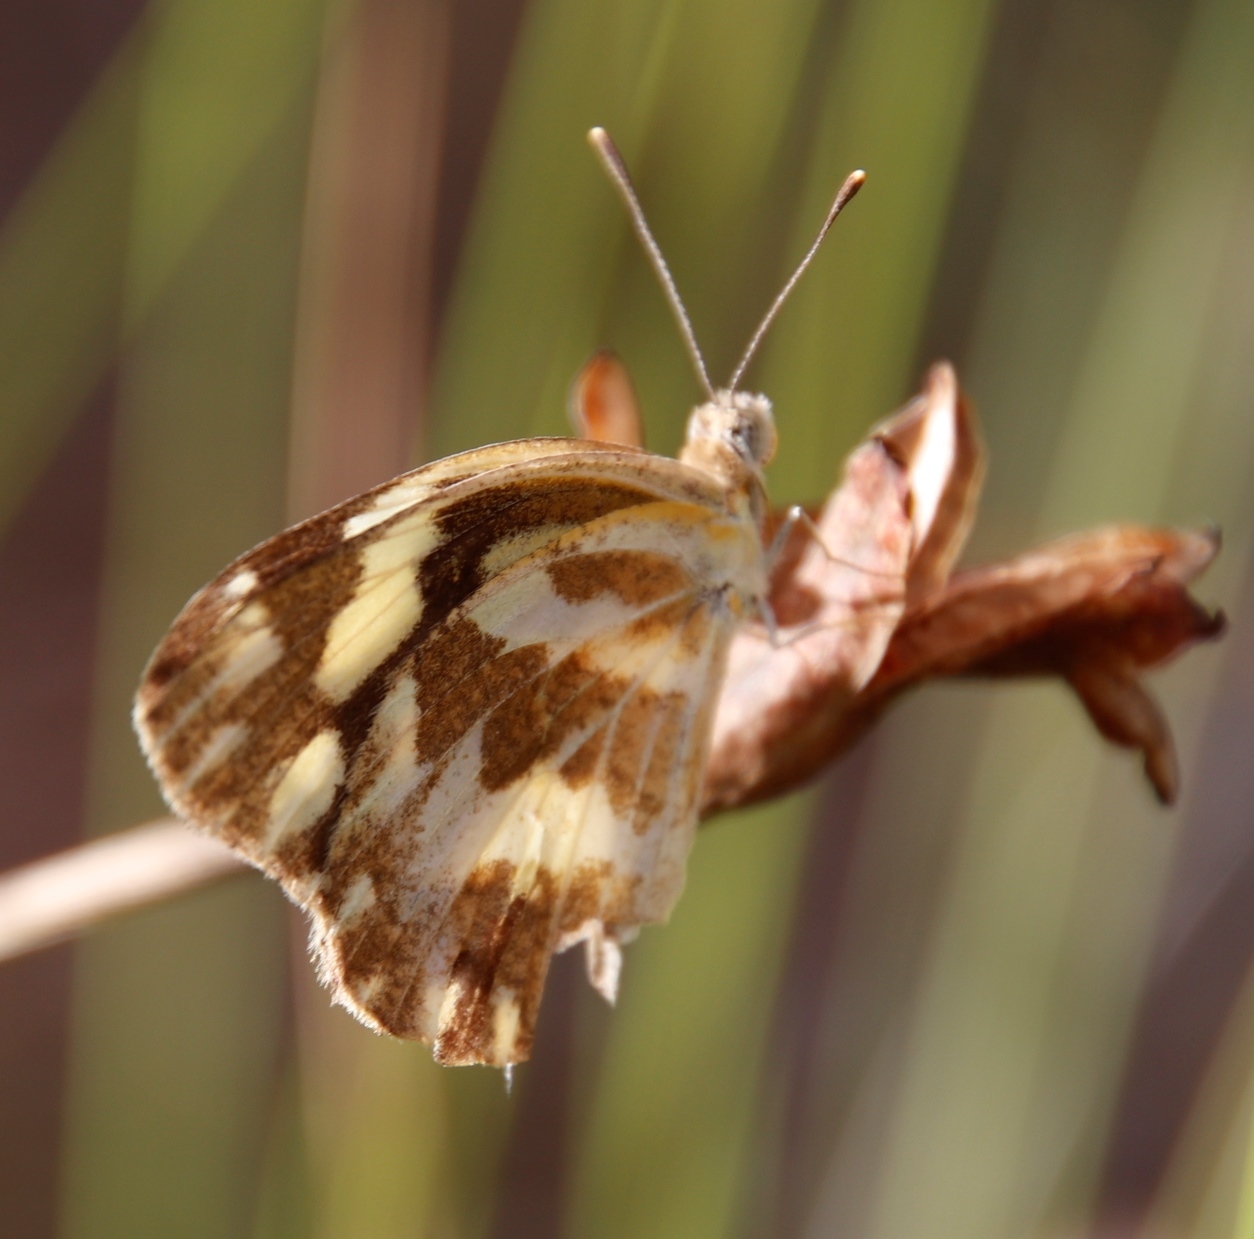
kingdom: Animalia
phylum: Arthropoda
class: Insecta
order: Lepidoptera
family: Pieridae
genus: Pinacopteryx
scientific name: Pinacopteryx eriphia
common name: Zebra white
